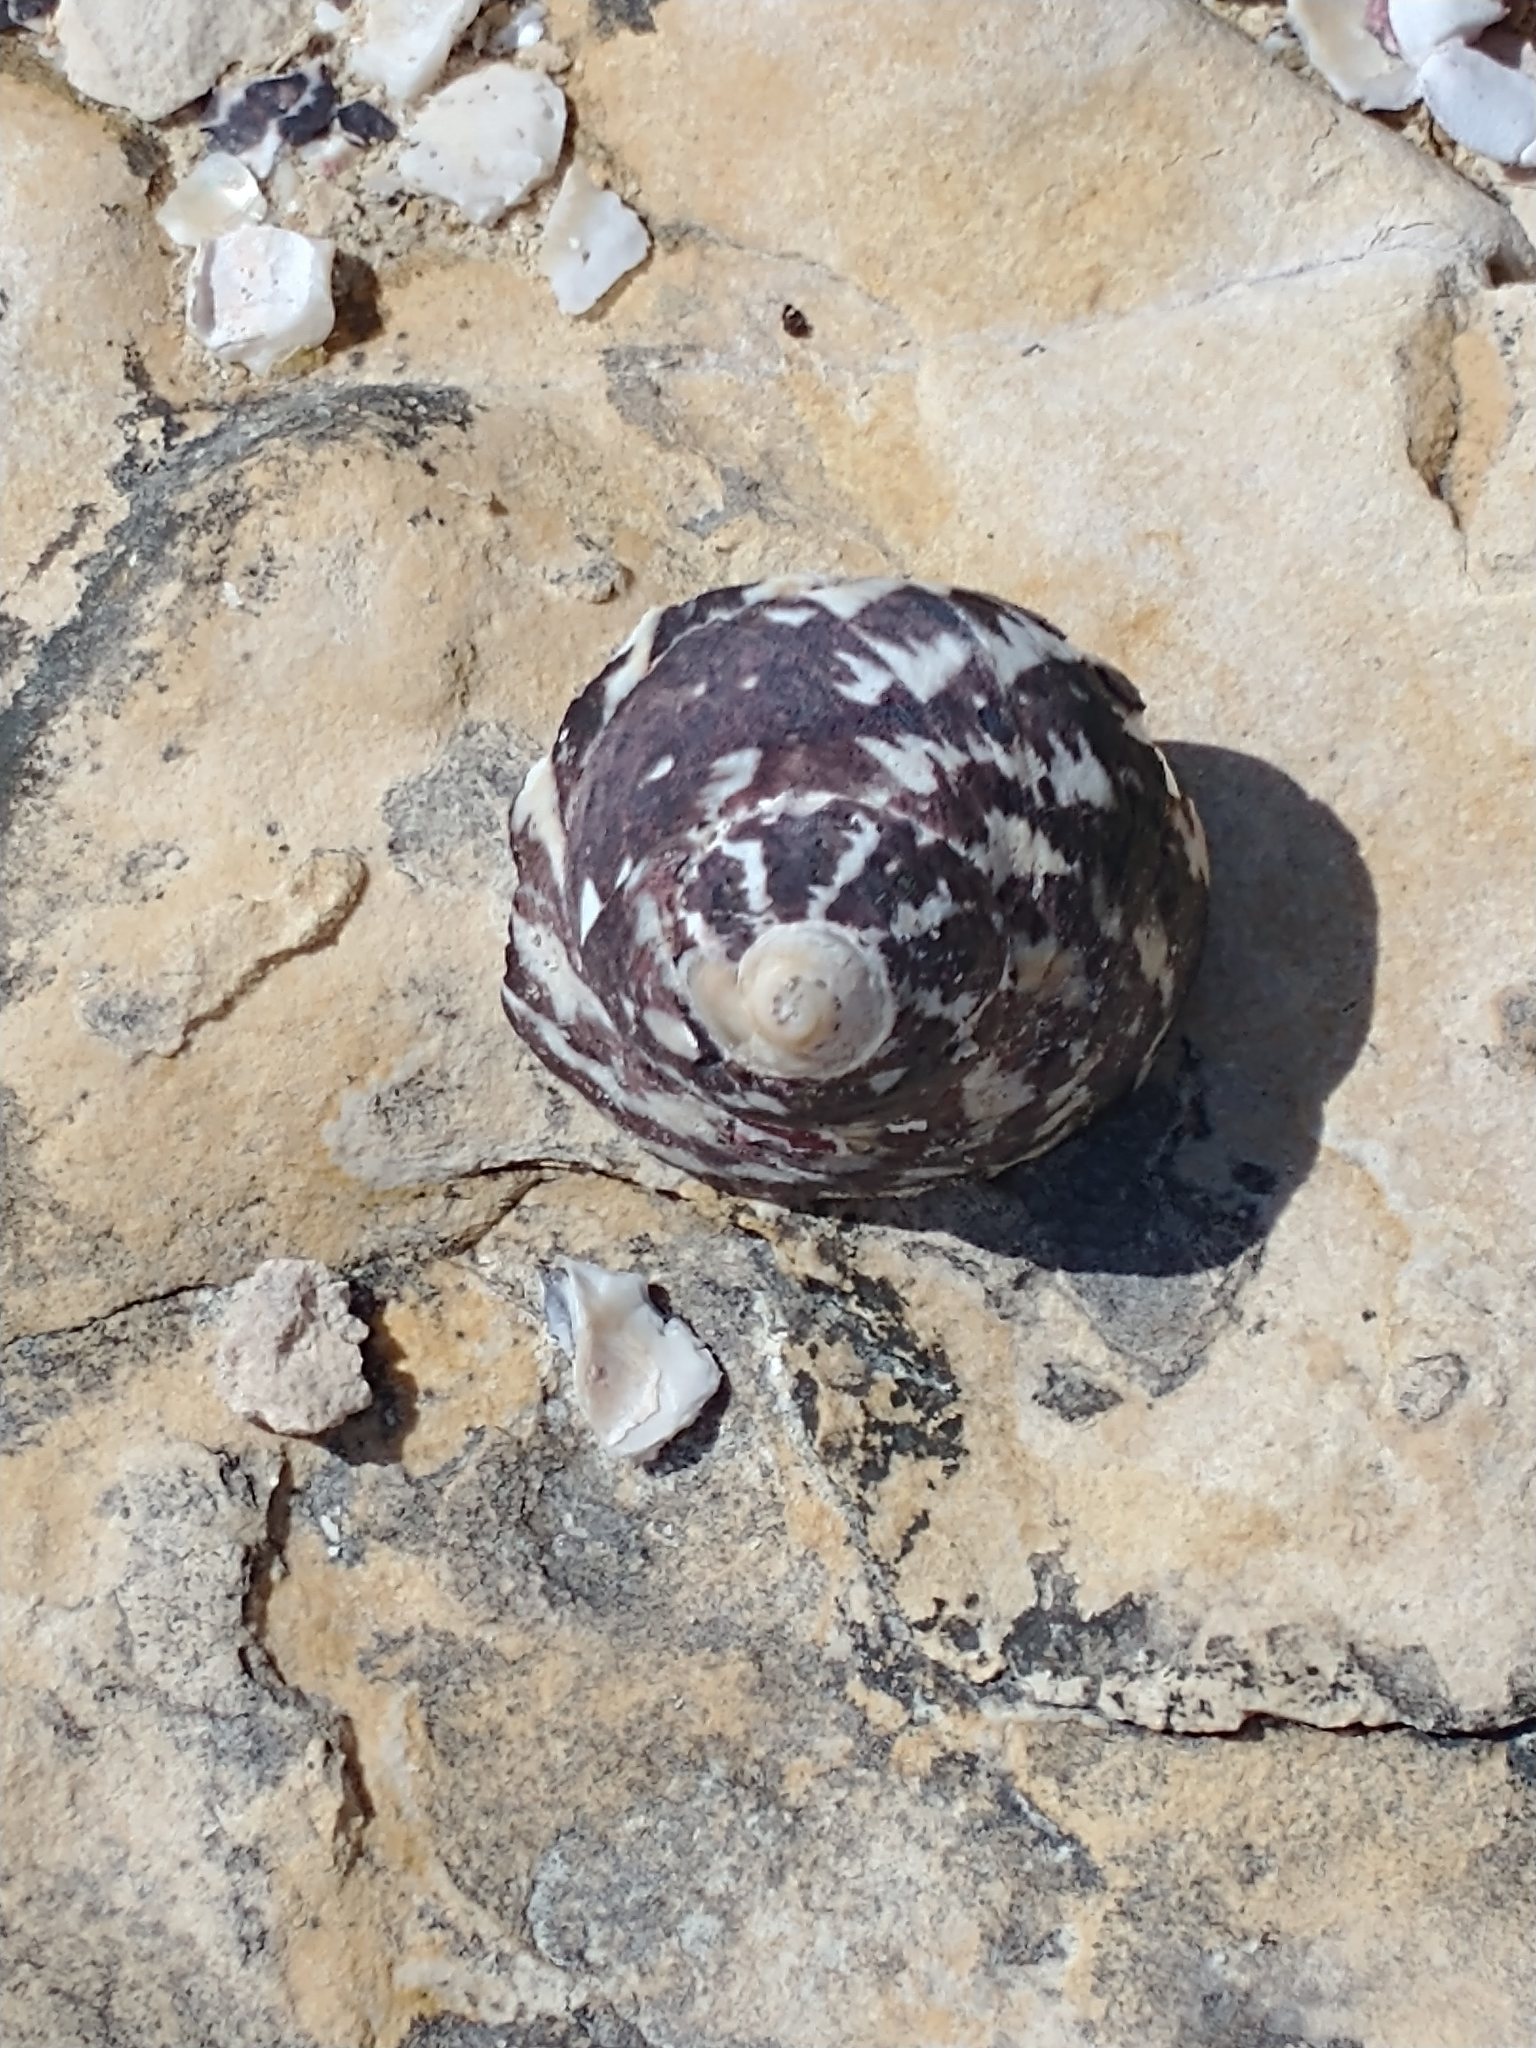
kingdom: Animalia
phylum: Mollusca
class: Gastropoda
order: Trochida
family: Tegulidae
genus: Cittarium
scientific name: Cittarium pica
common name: West indian topshell
